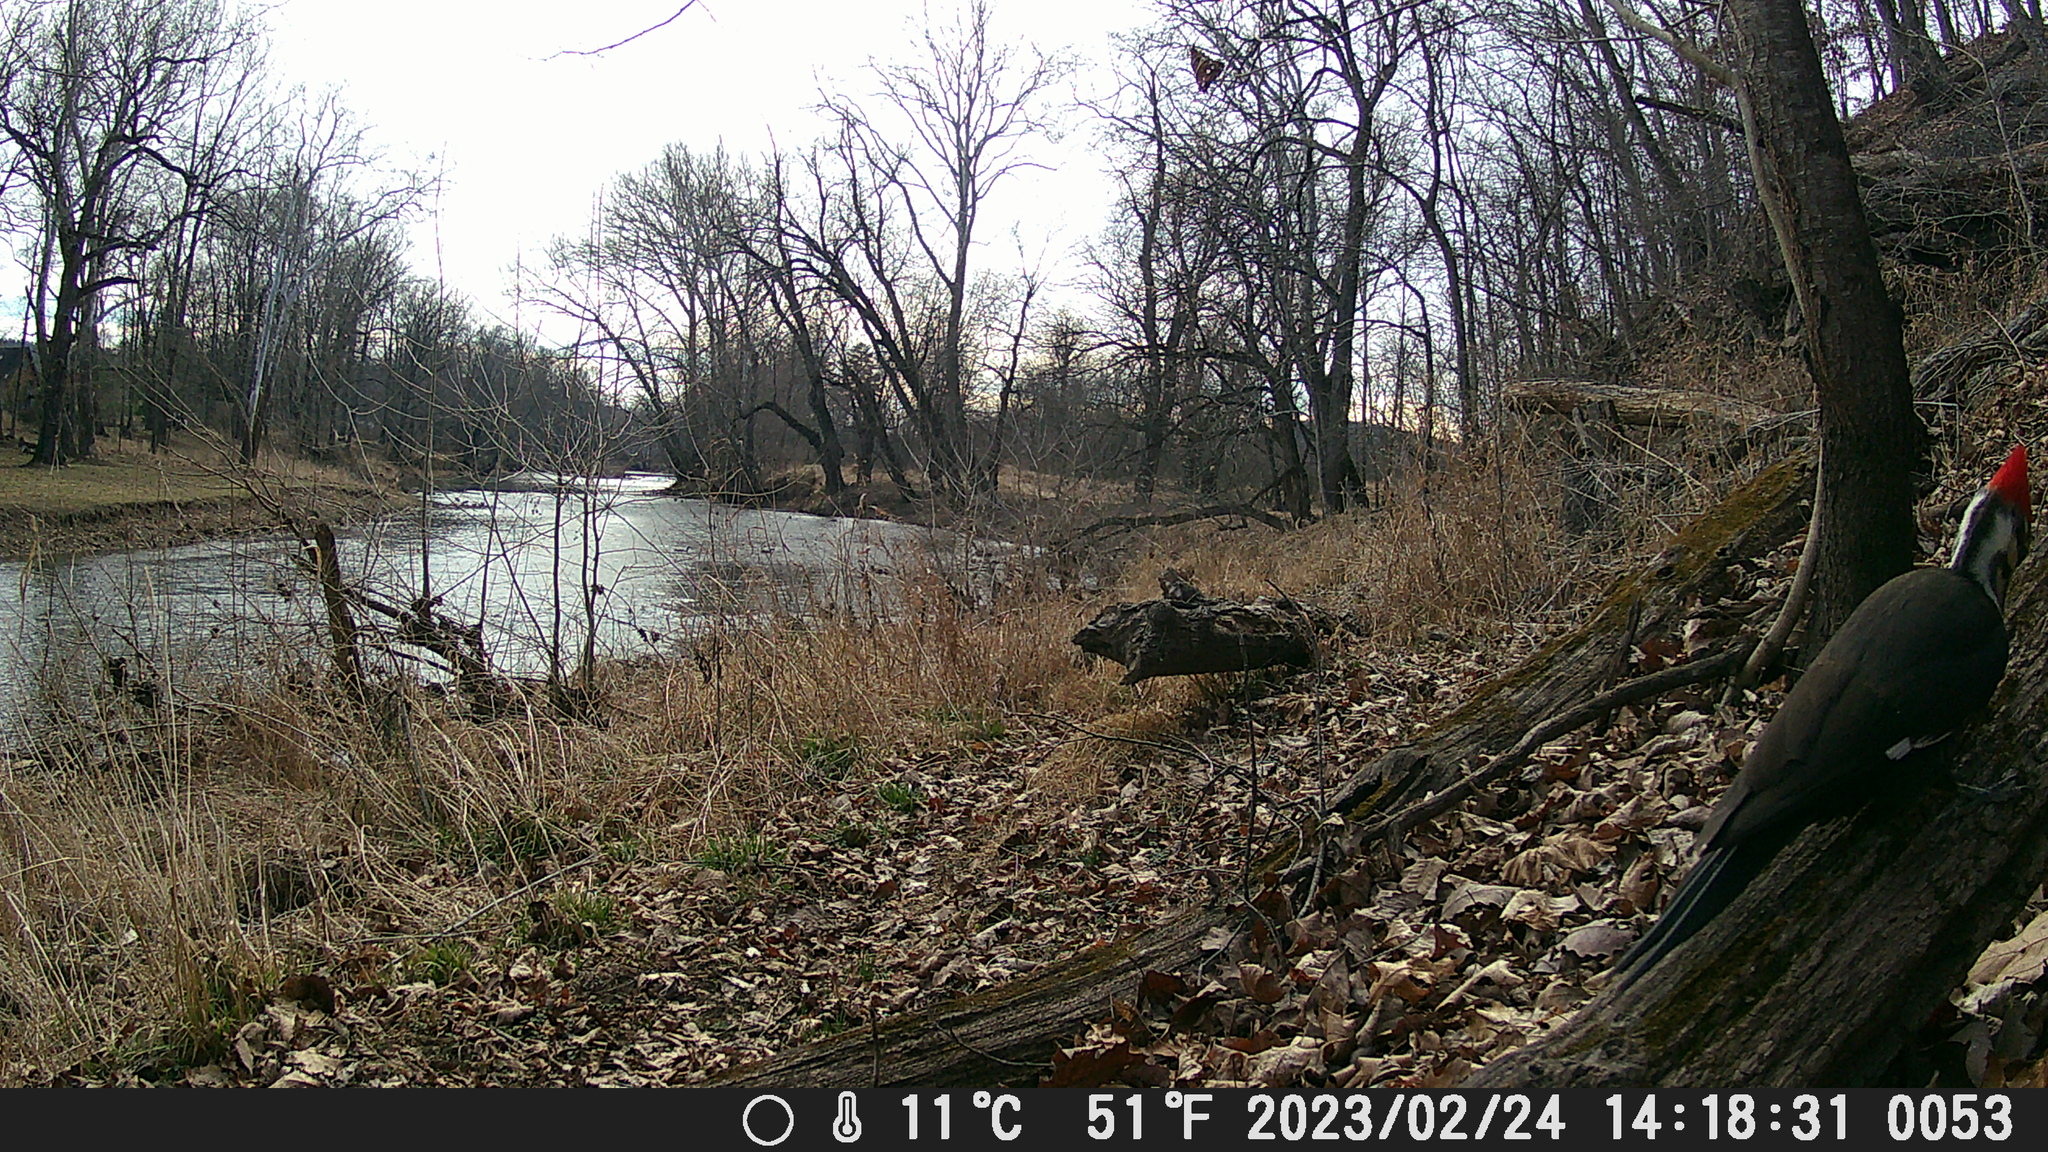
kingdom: Animalia
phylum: Chordata
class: Aves
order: Piciformes
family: Picidae
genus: Dryocopus
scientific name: Dryocopus pileatus
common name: Pileated woodpecker
